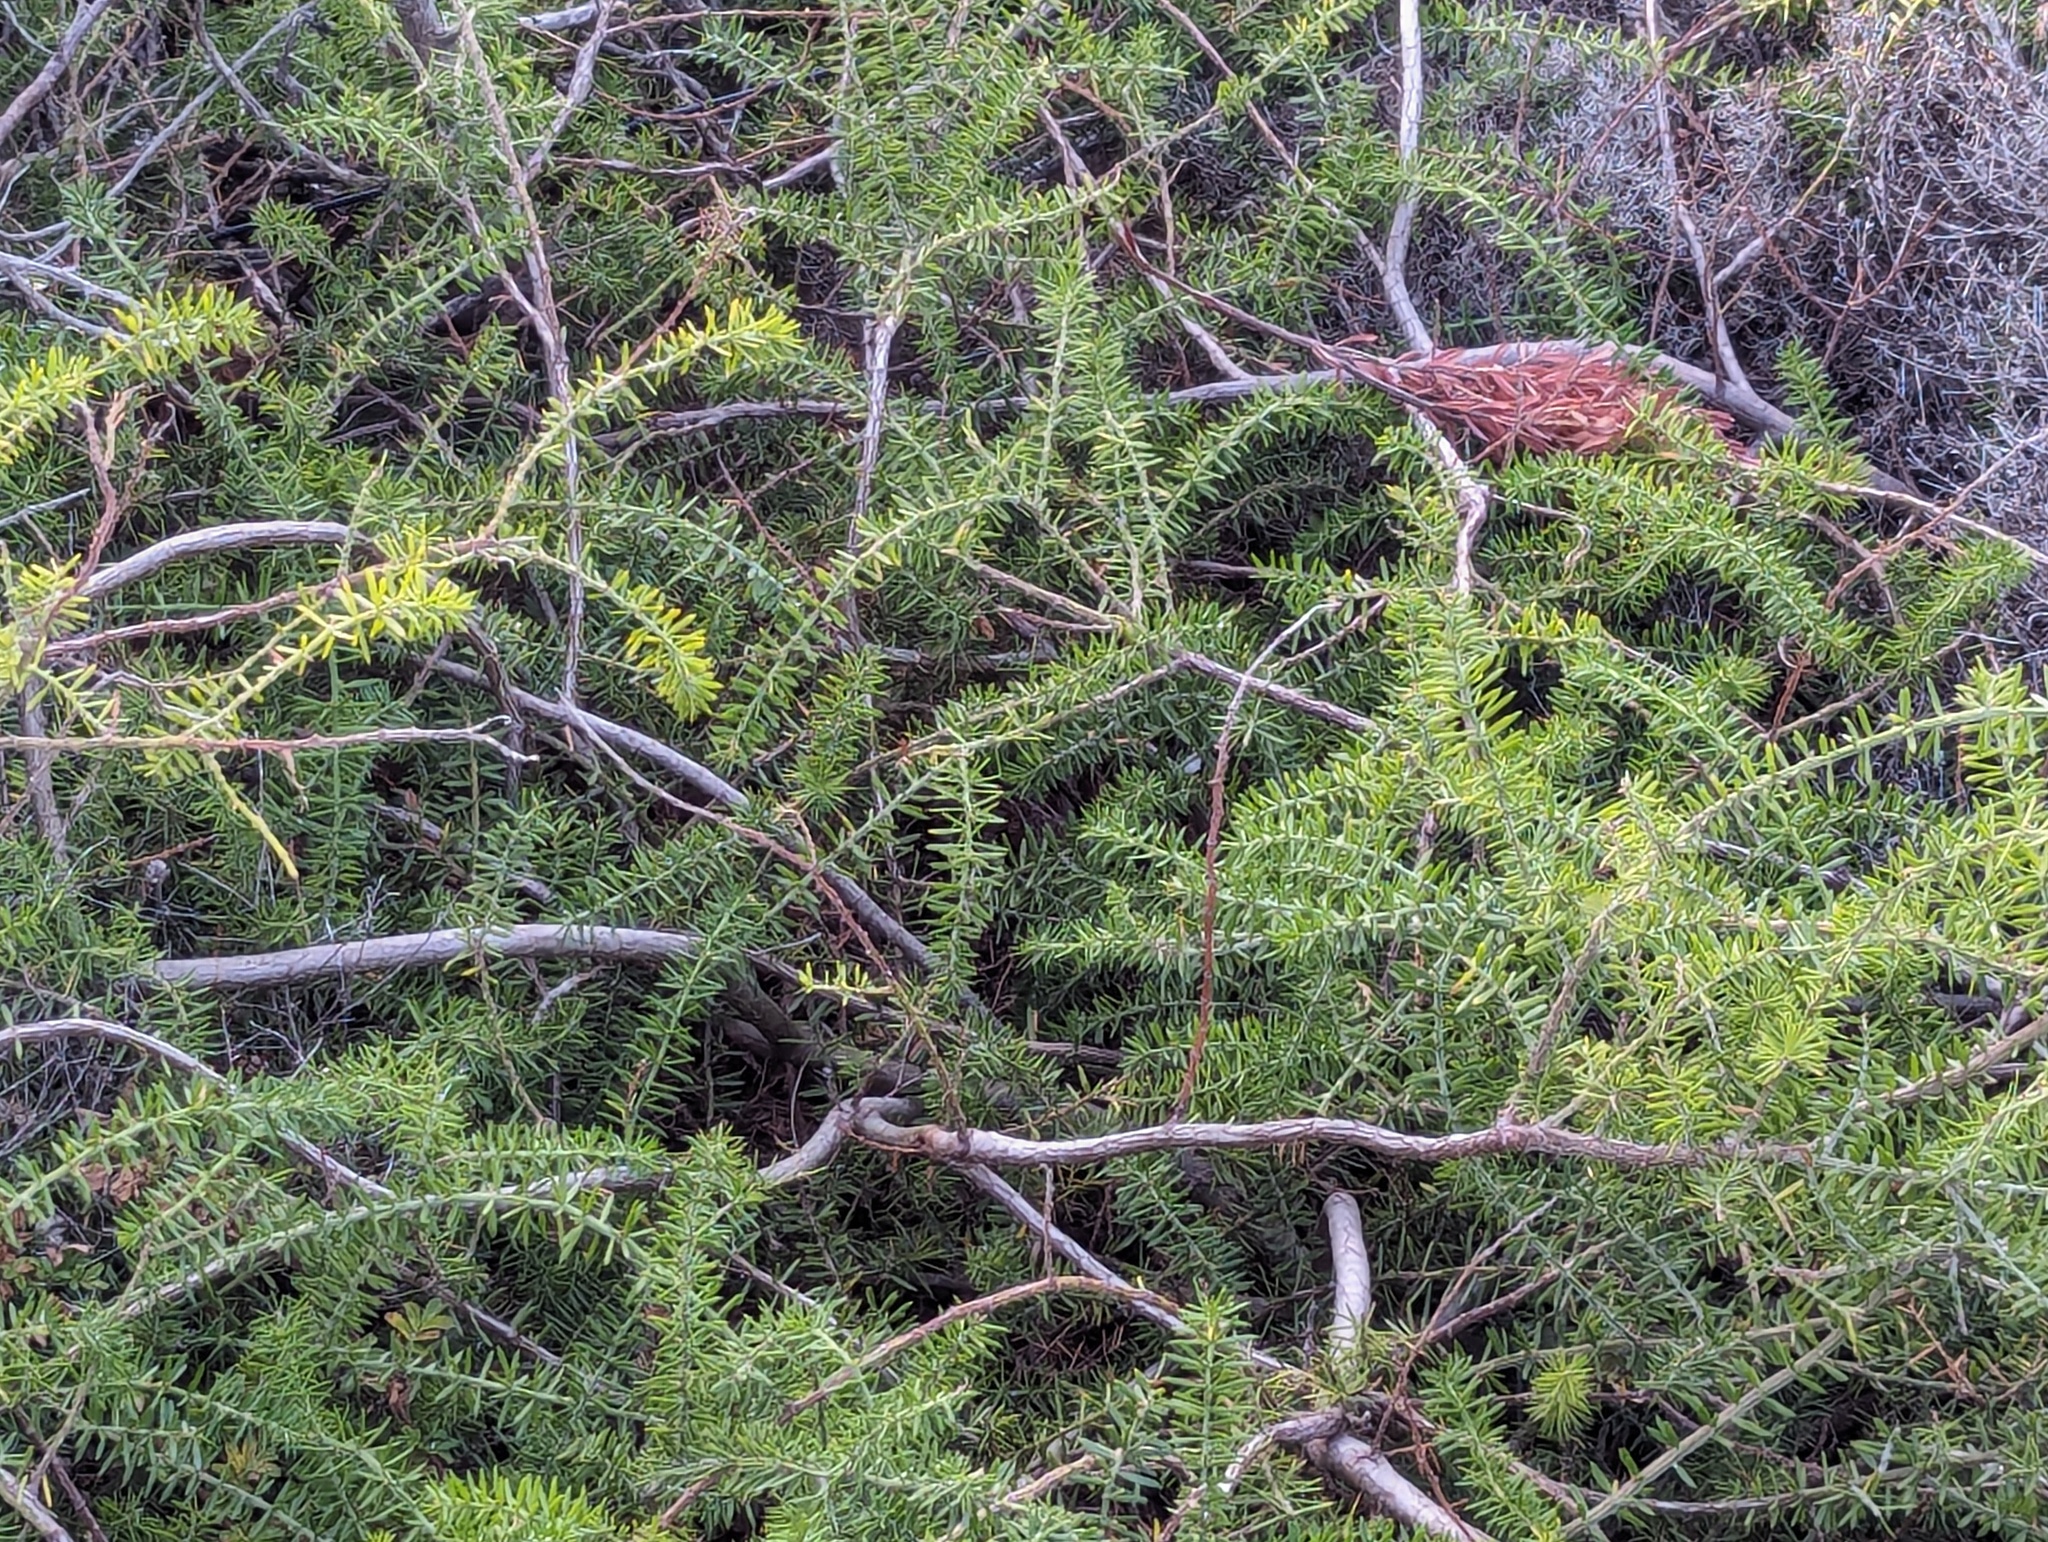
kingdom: Plantae
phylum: Tracheophyta
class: Magnoliopsida
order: Fabales
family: Fabaceae
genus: Acacia
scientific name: Acacia verticillata
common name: Prickly moses
